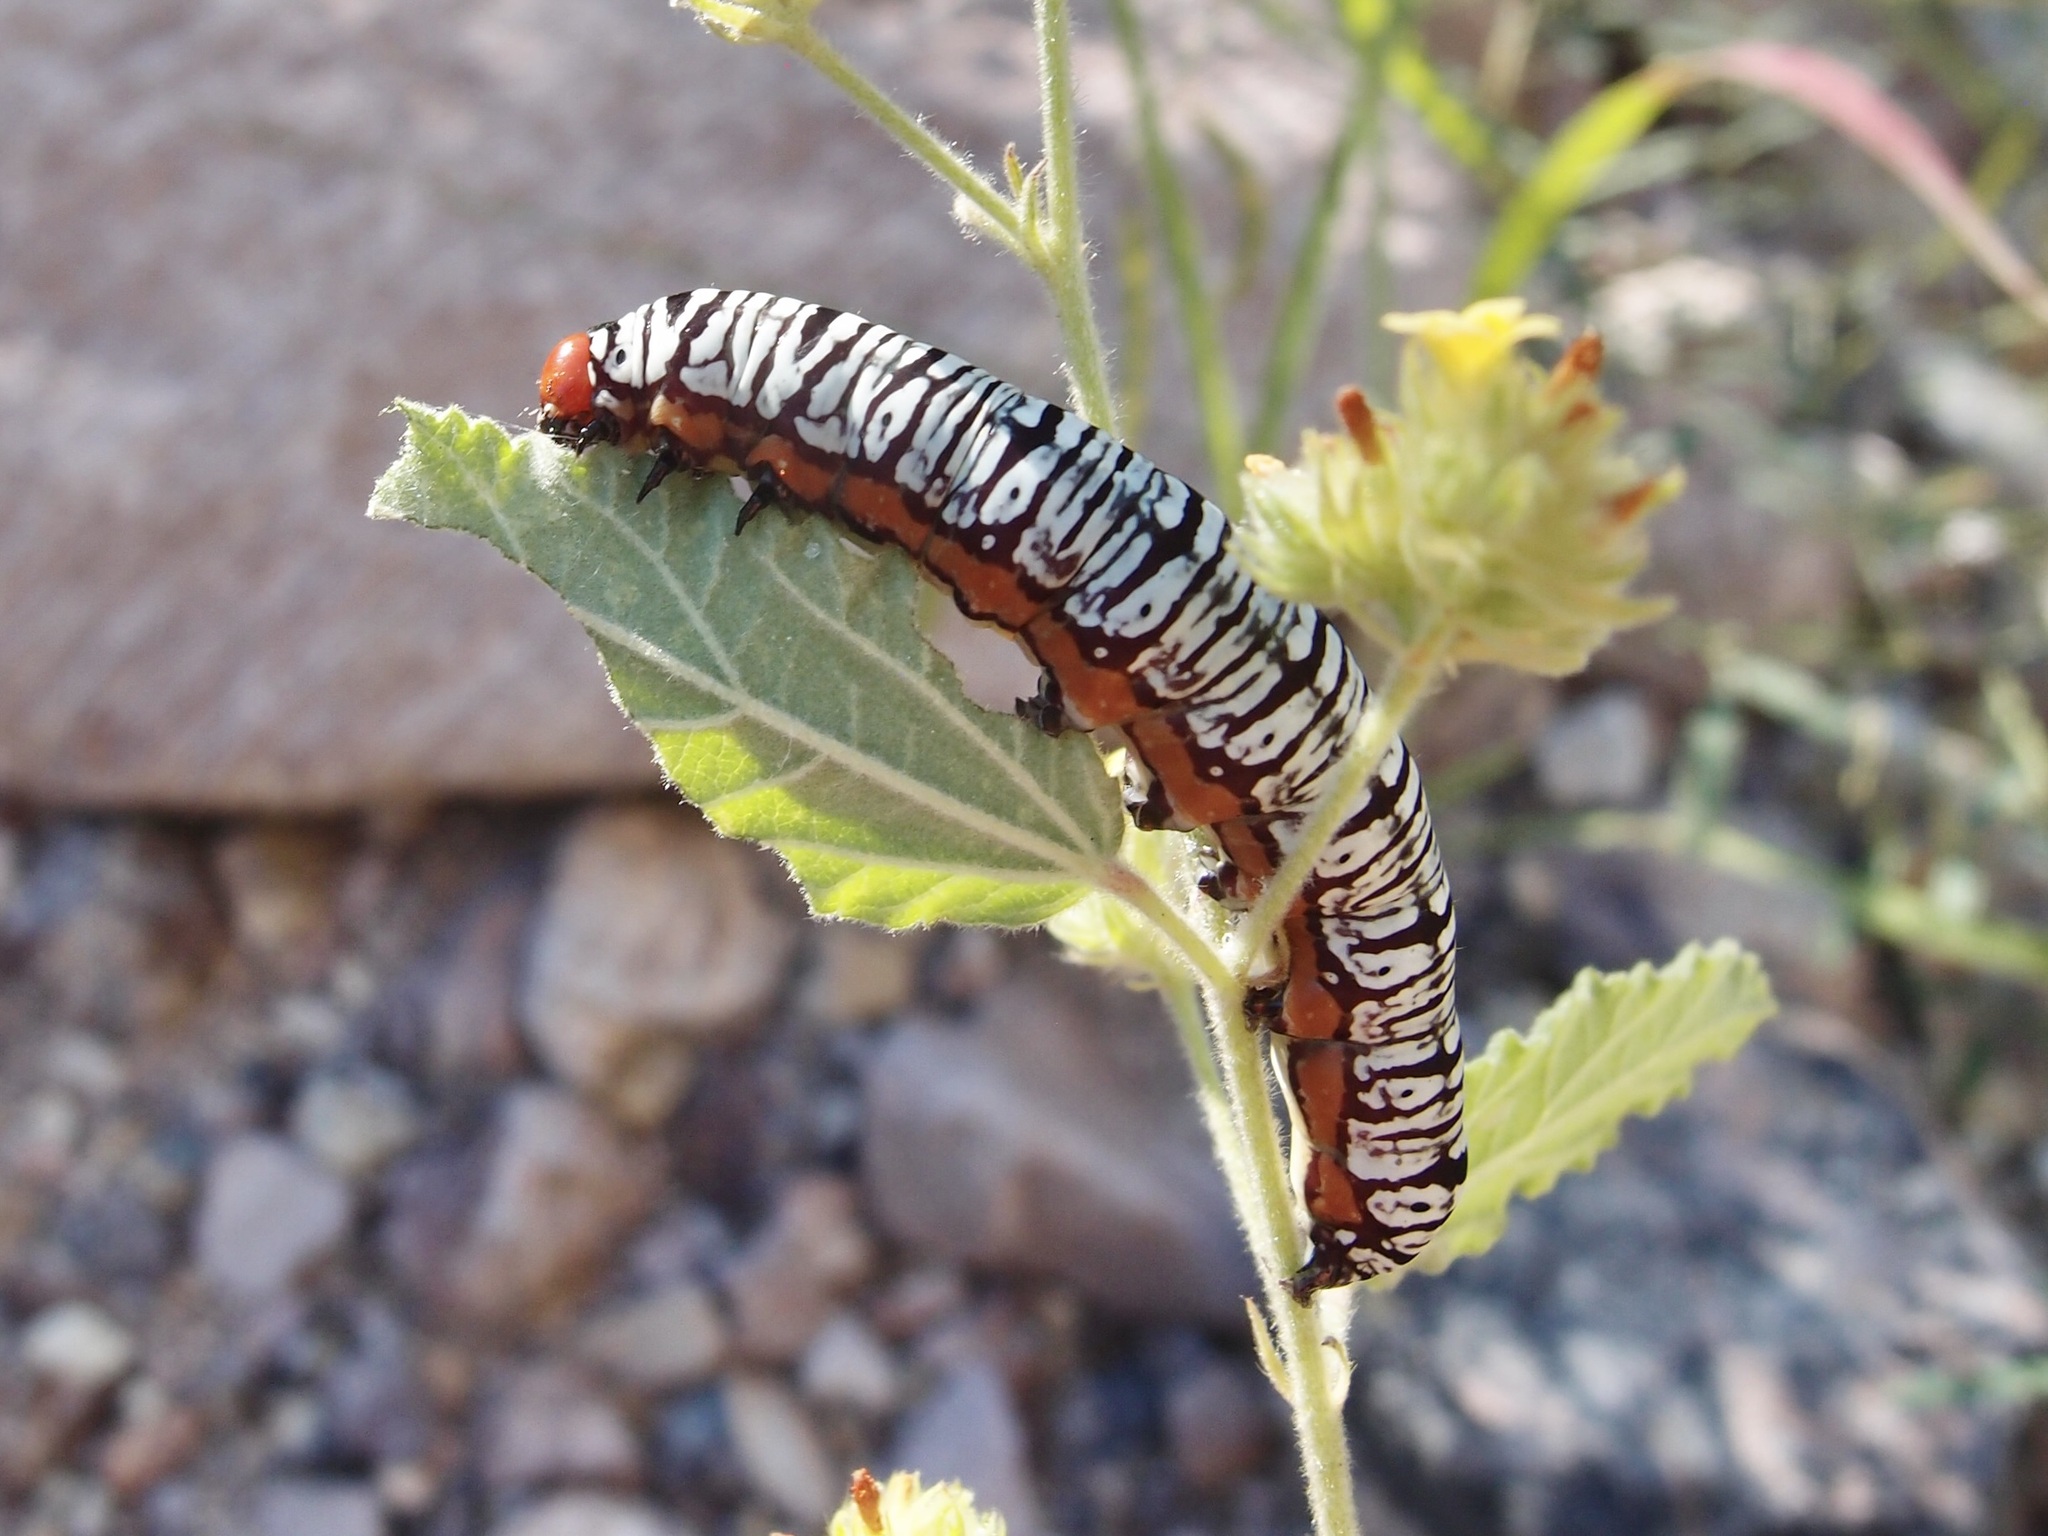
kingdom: Animalia
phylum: Arthropoda
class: Insecta
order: Lepidoptera
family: Erebidae
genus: Diphthera
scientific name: Diphthera festiva
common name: Hieroglyphic moth
